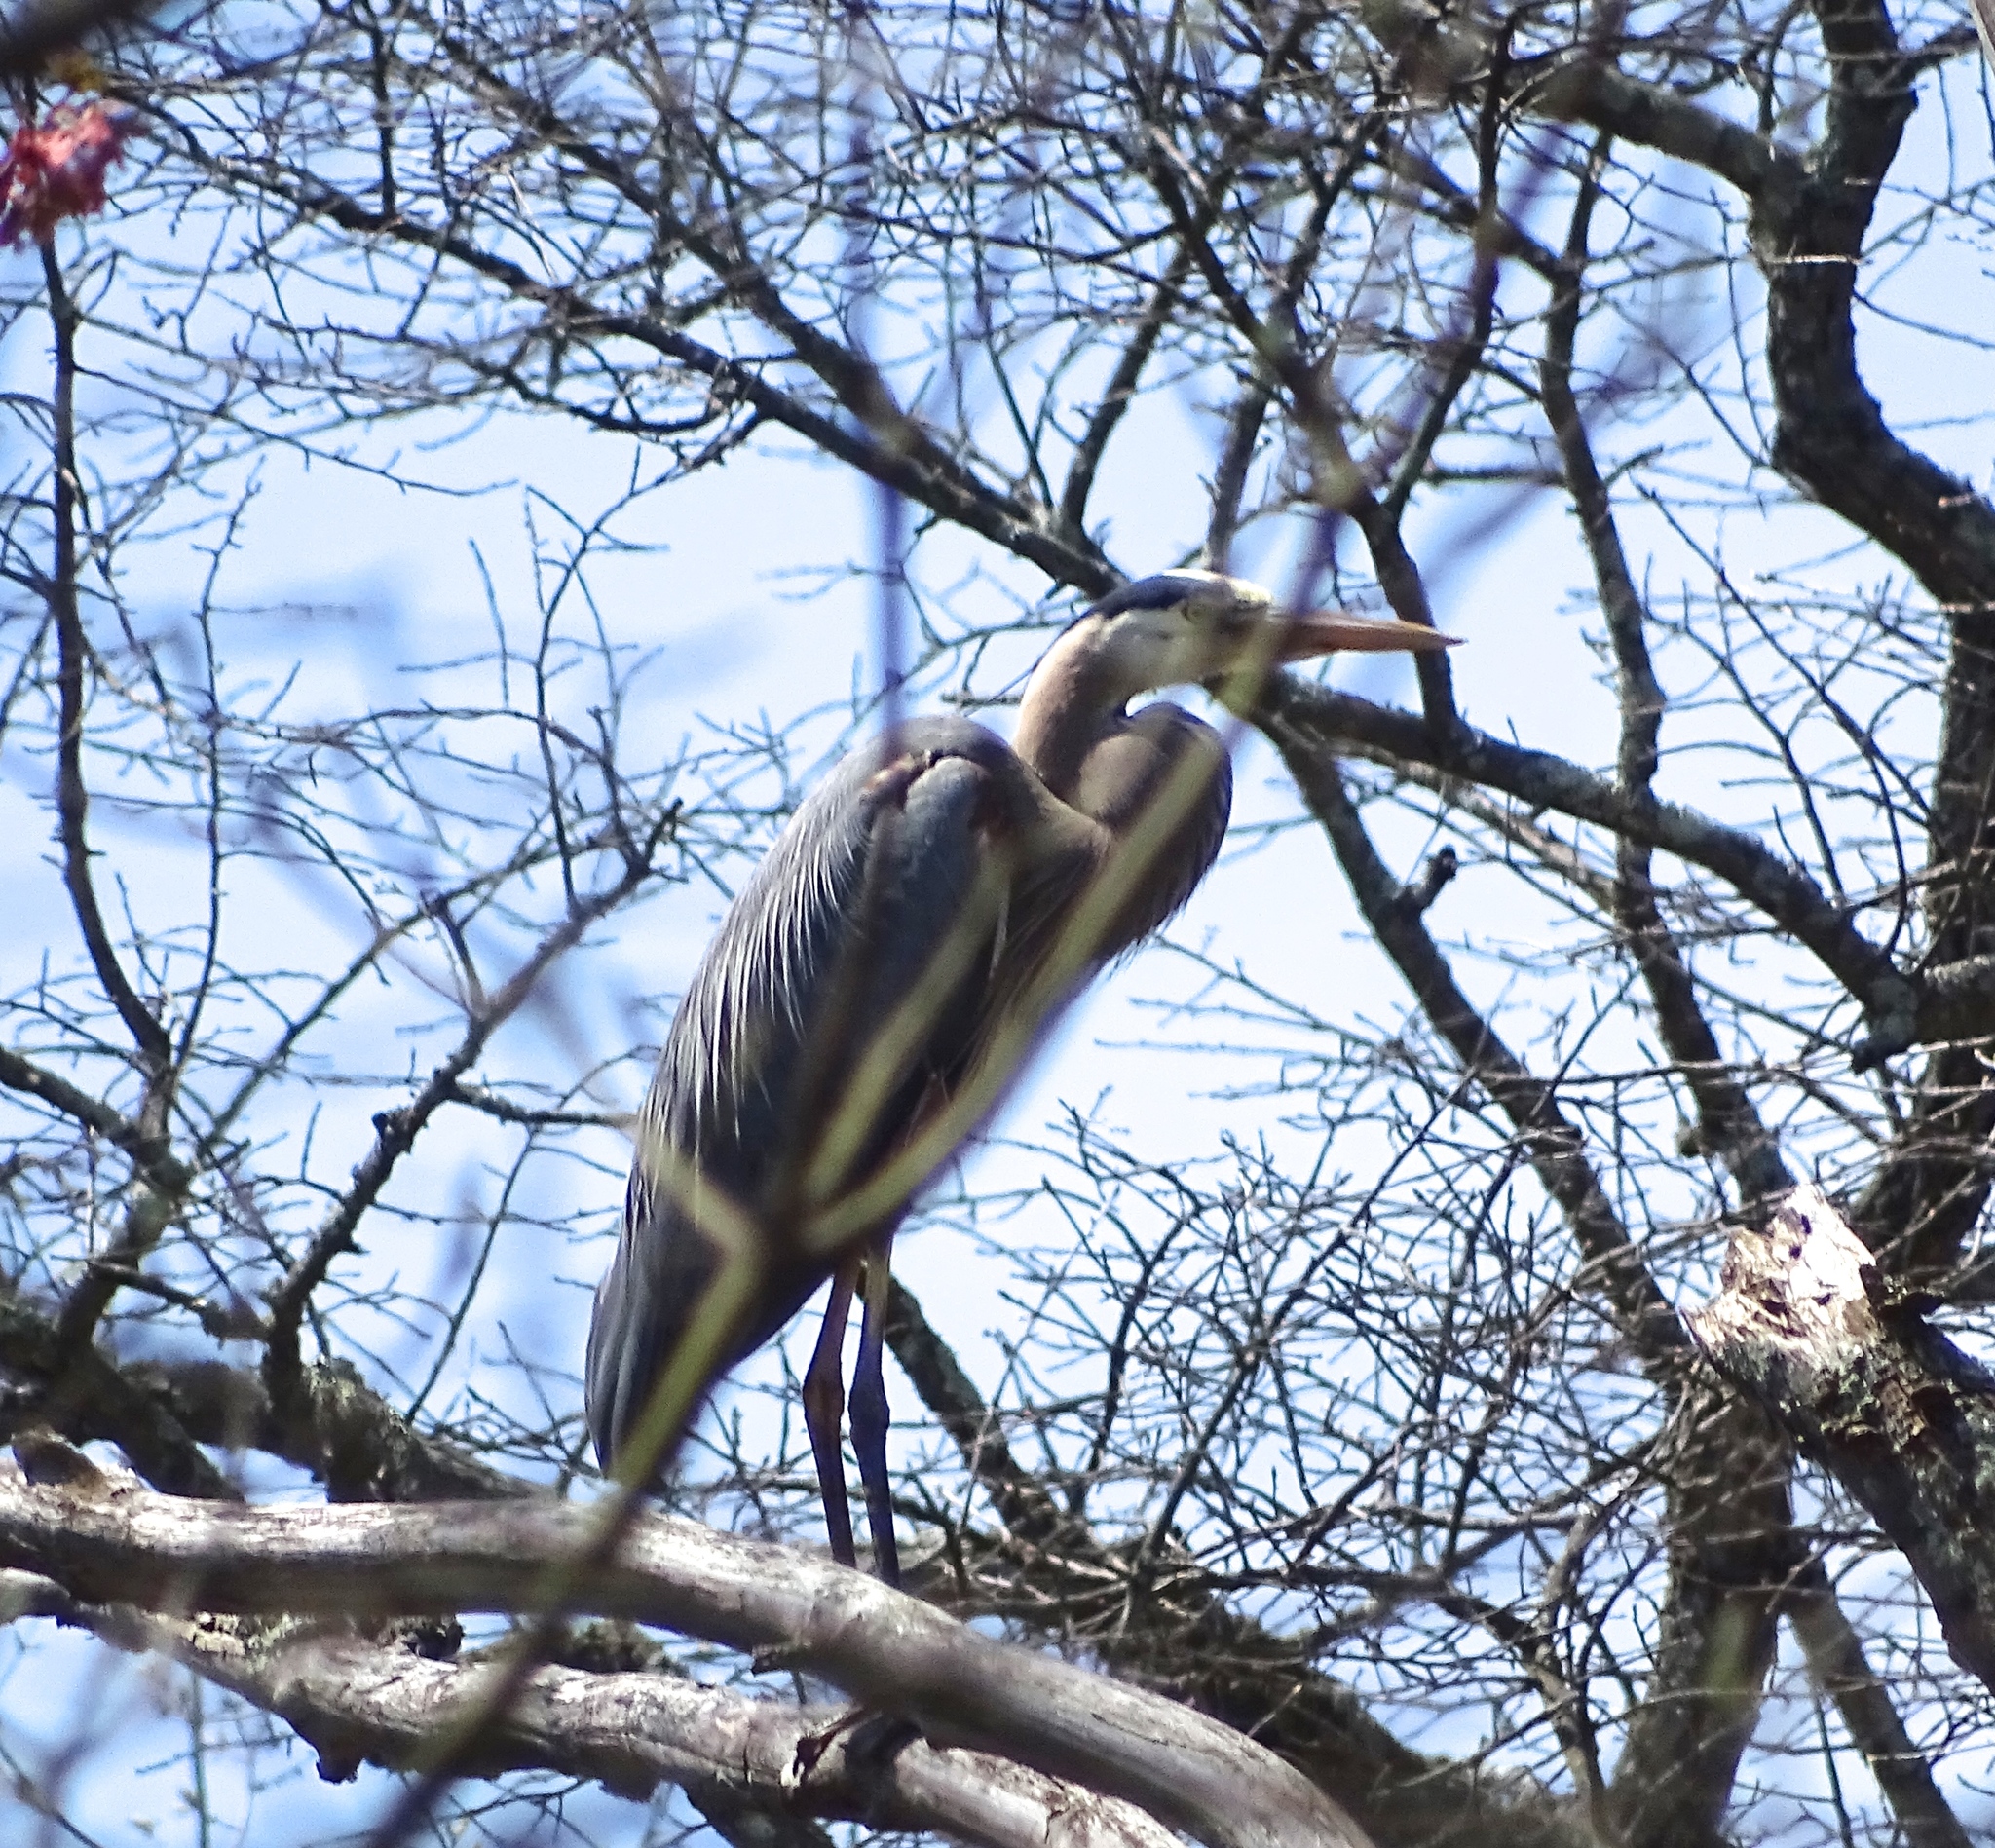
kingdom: Animalia
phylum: Chordata
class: Aves
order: Pelecaniformes
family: Ardeidae
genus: Ardea
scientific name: Ardea herodias
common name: Great blue heron
